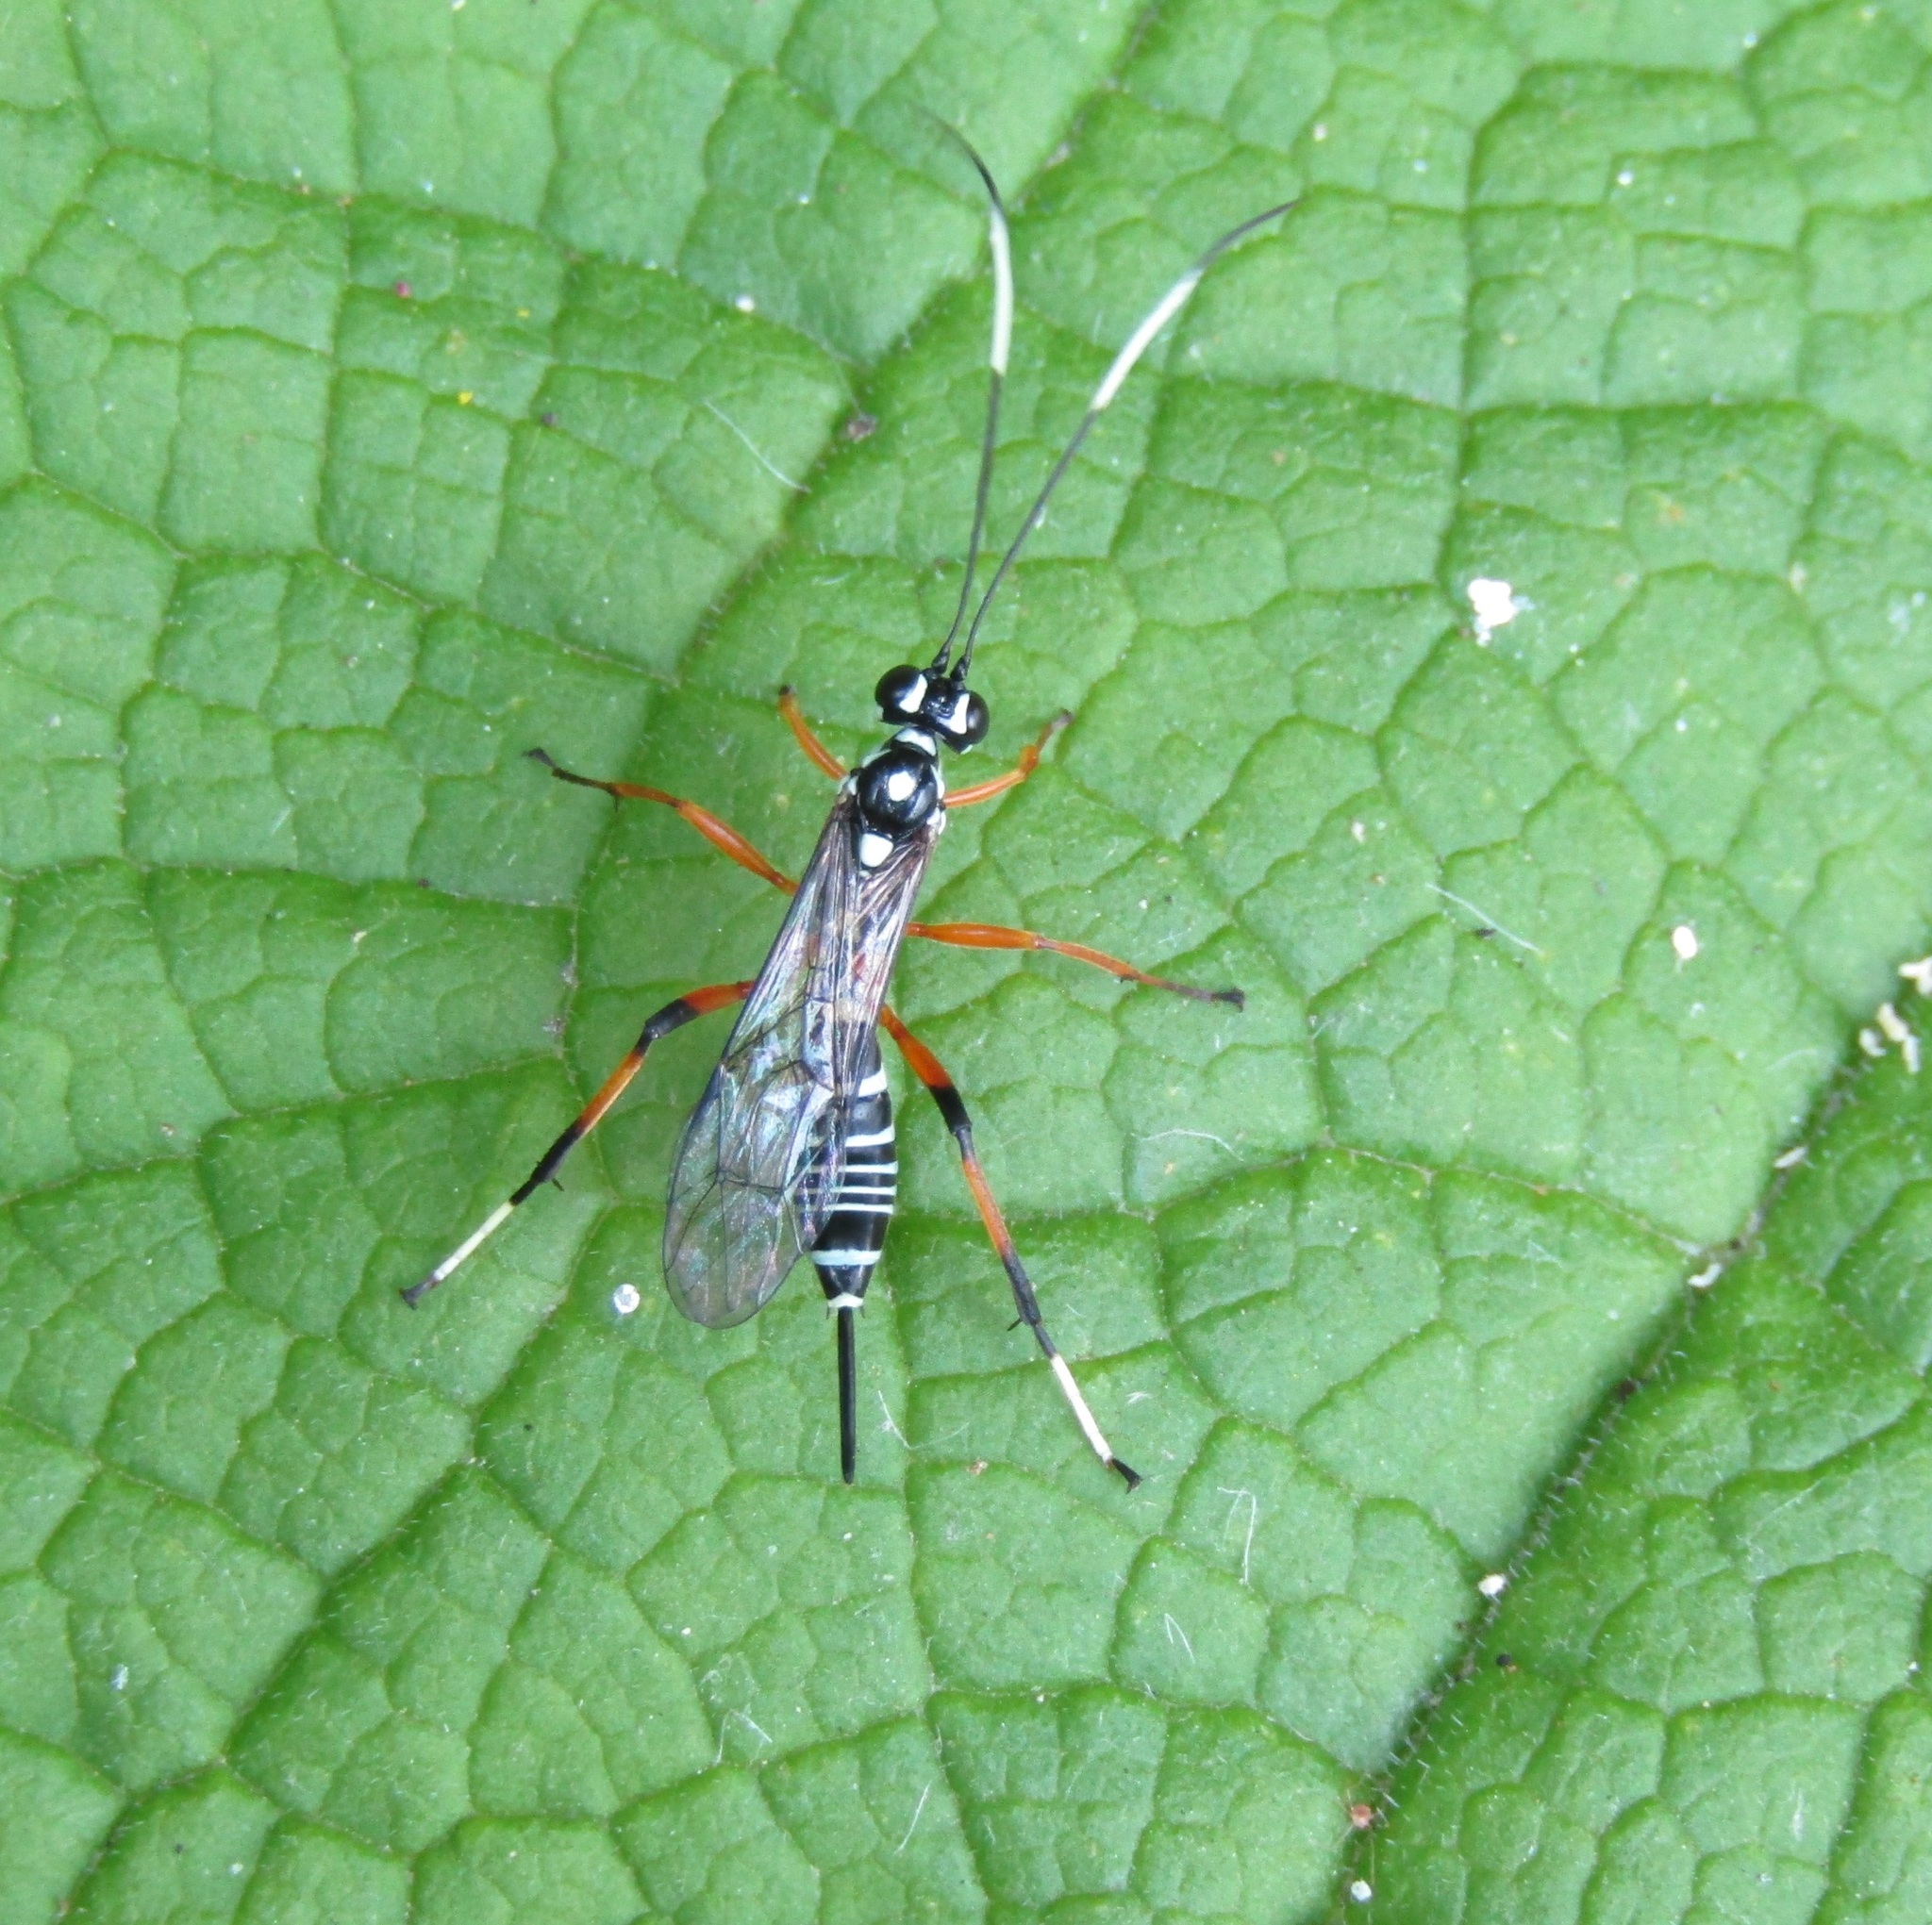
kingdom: Animalia
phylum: Arthropoda
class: Insecta
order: Hymenoptera
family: Ichneumonidae
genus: Xanthocryptus
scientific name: Xanthocryptus novozealandicus
